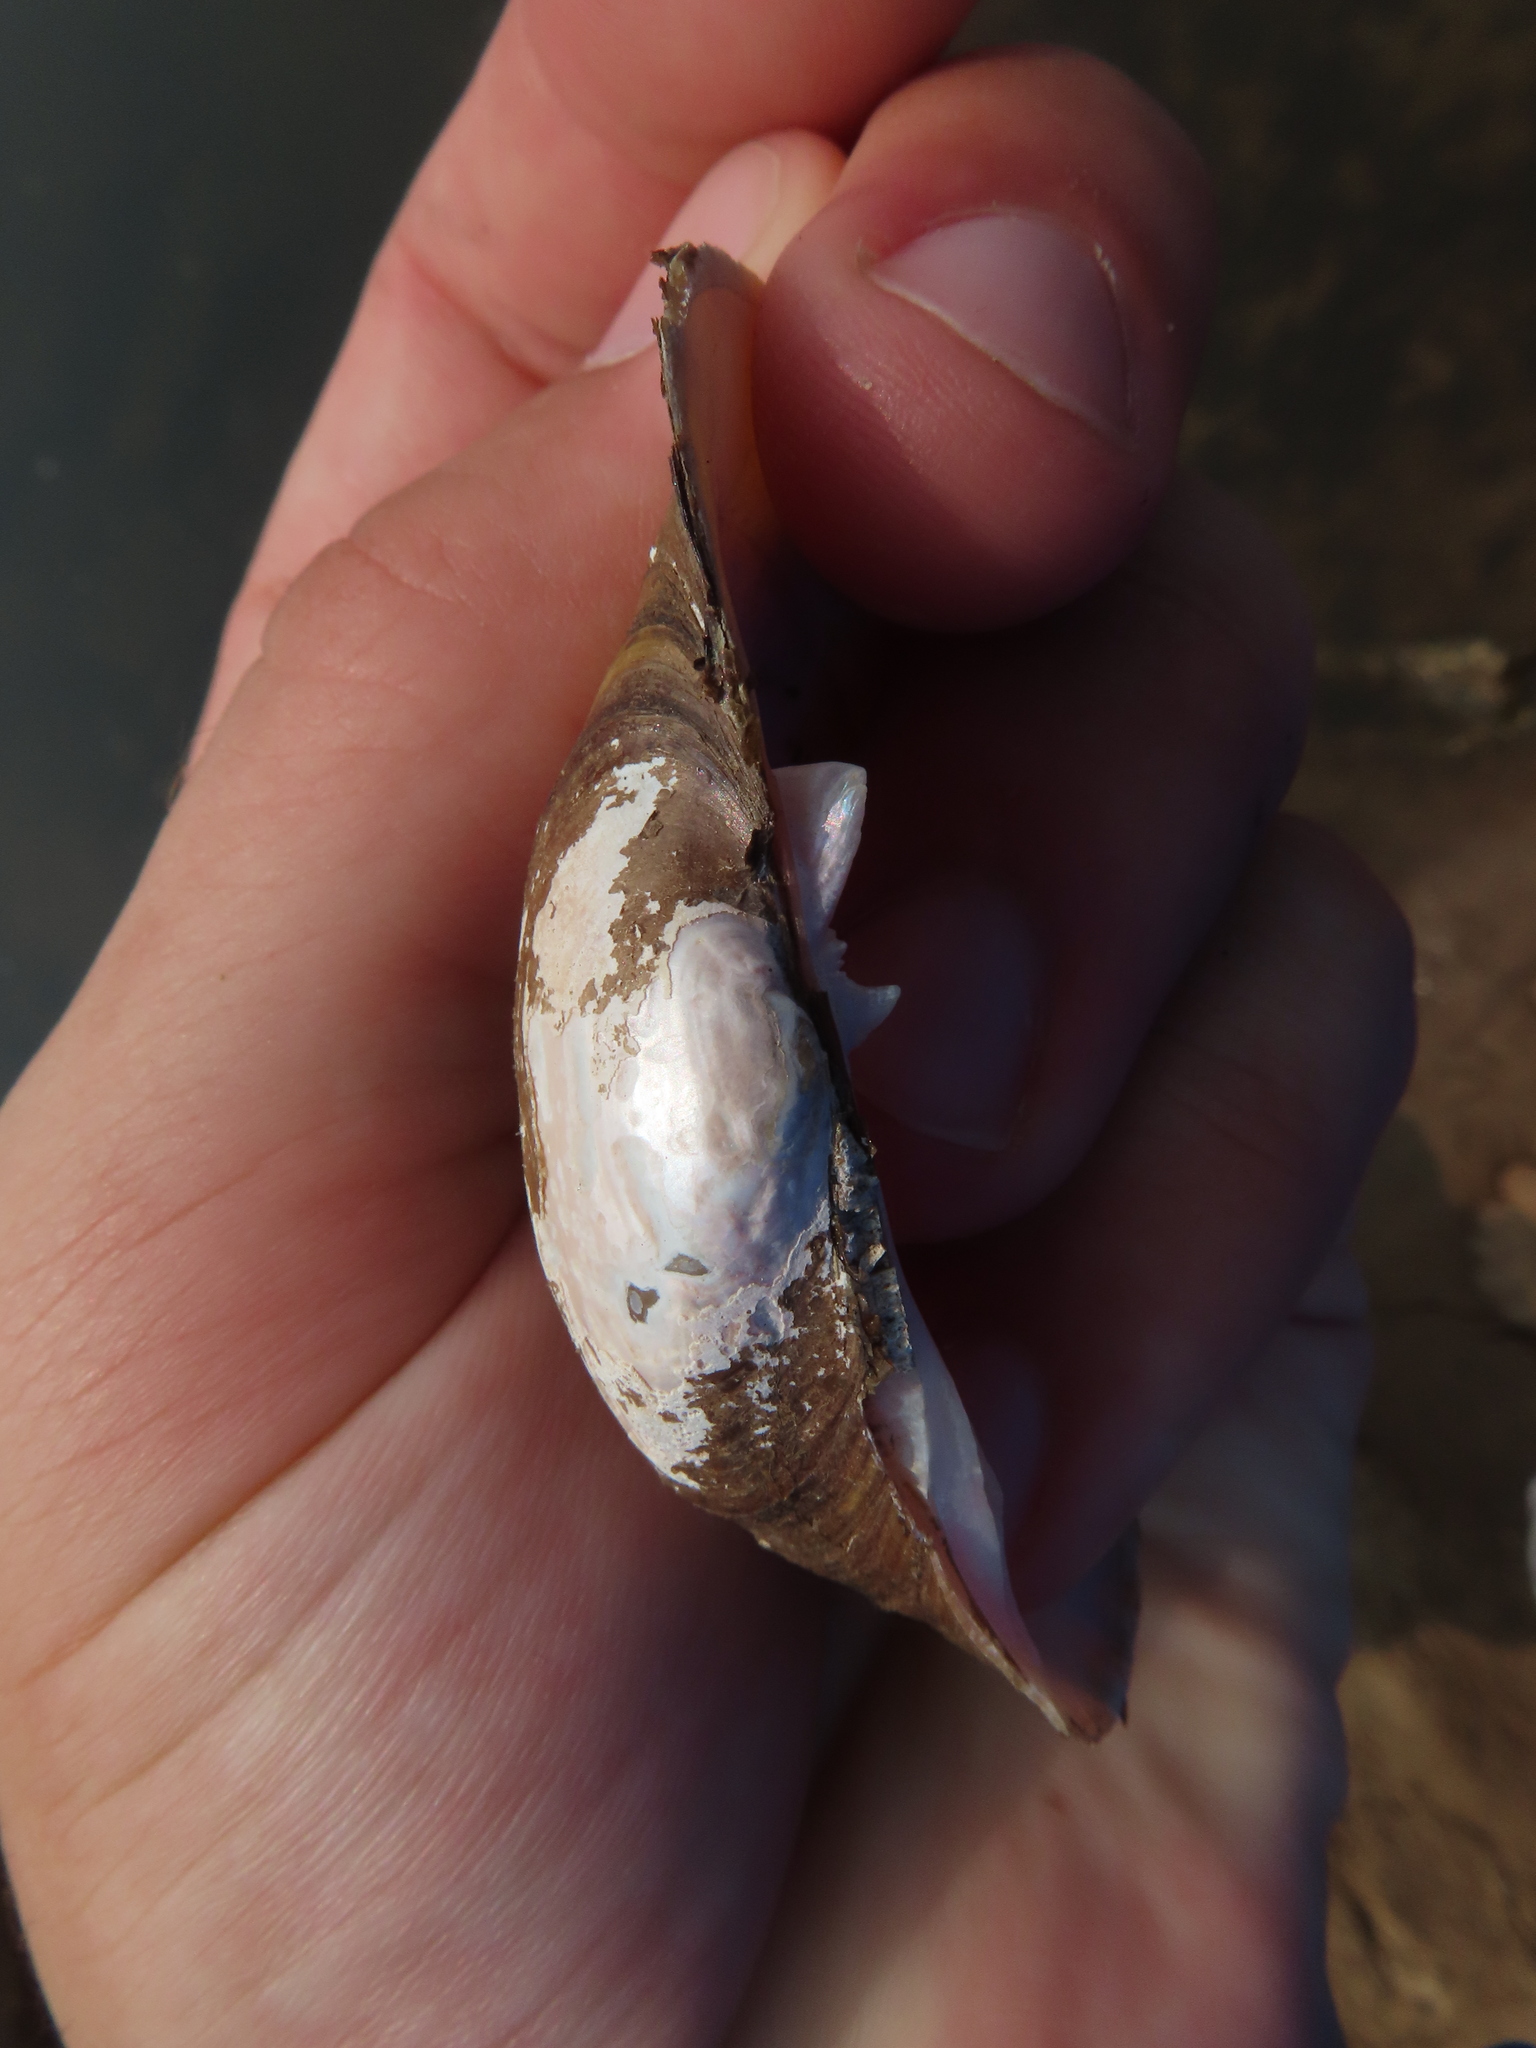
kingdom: Animalia
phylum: Mollusca
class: Bivalvia
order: Unionida
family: Unionidae
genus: Lampsilis
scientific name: Lampsilis cardium
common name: Plain pocketbook
